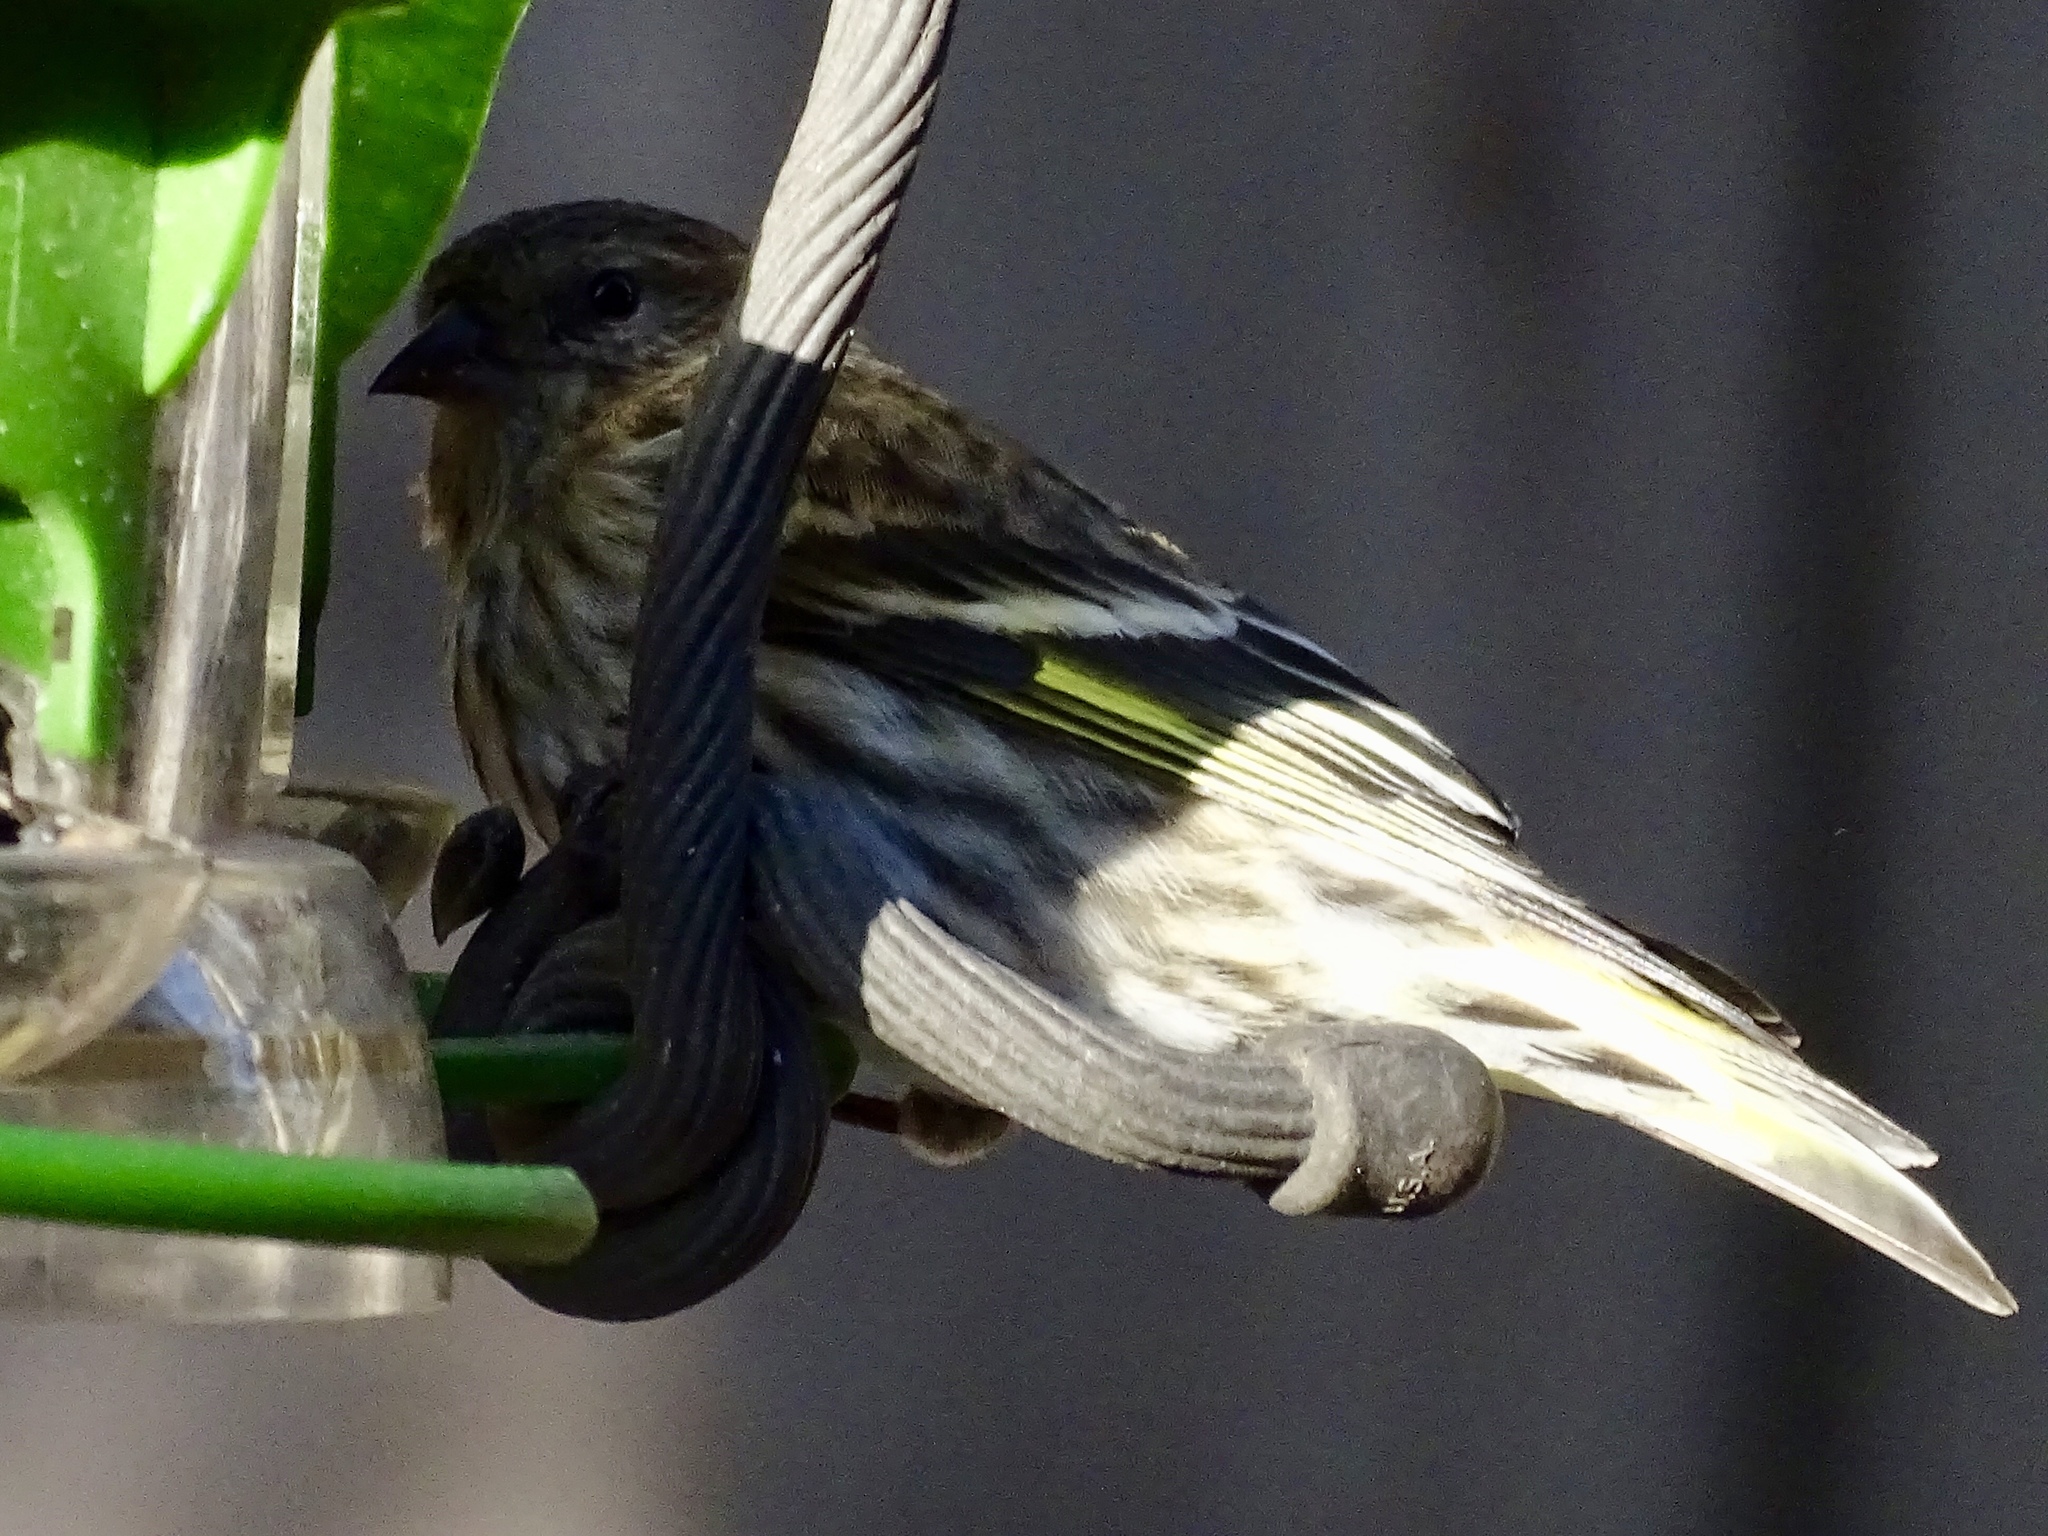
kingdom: Animalia
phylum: Chordata
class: Aves
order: Passeriformes
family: Fringillidae
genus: Spinus
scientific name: Spinus pinus
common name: Pine siskin
